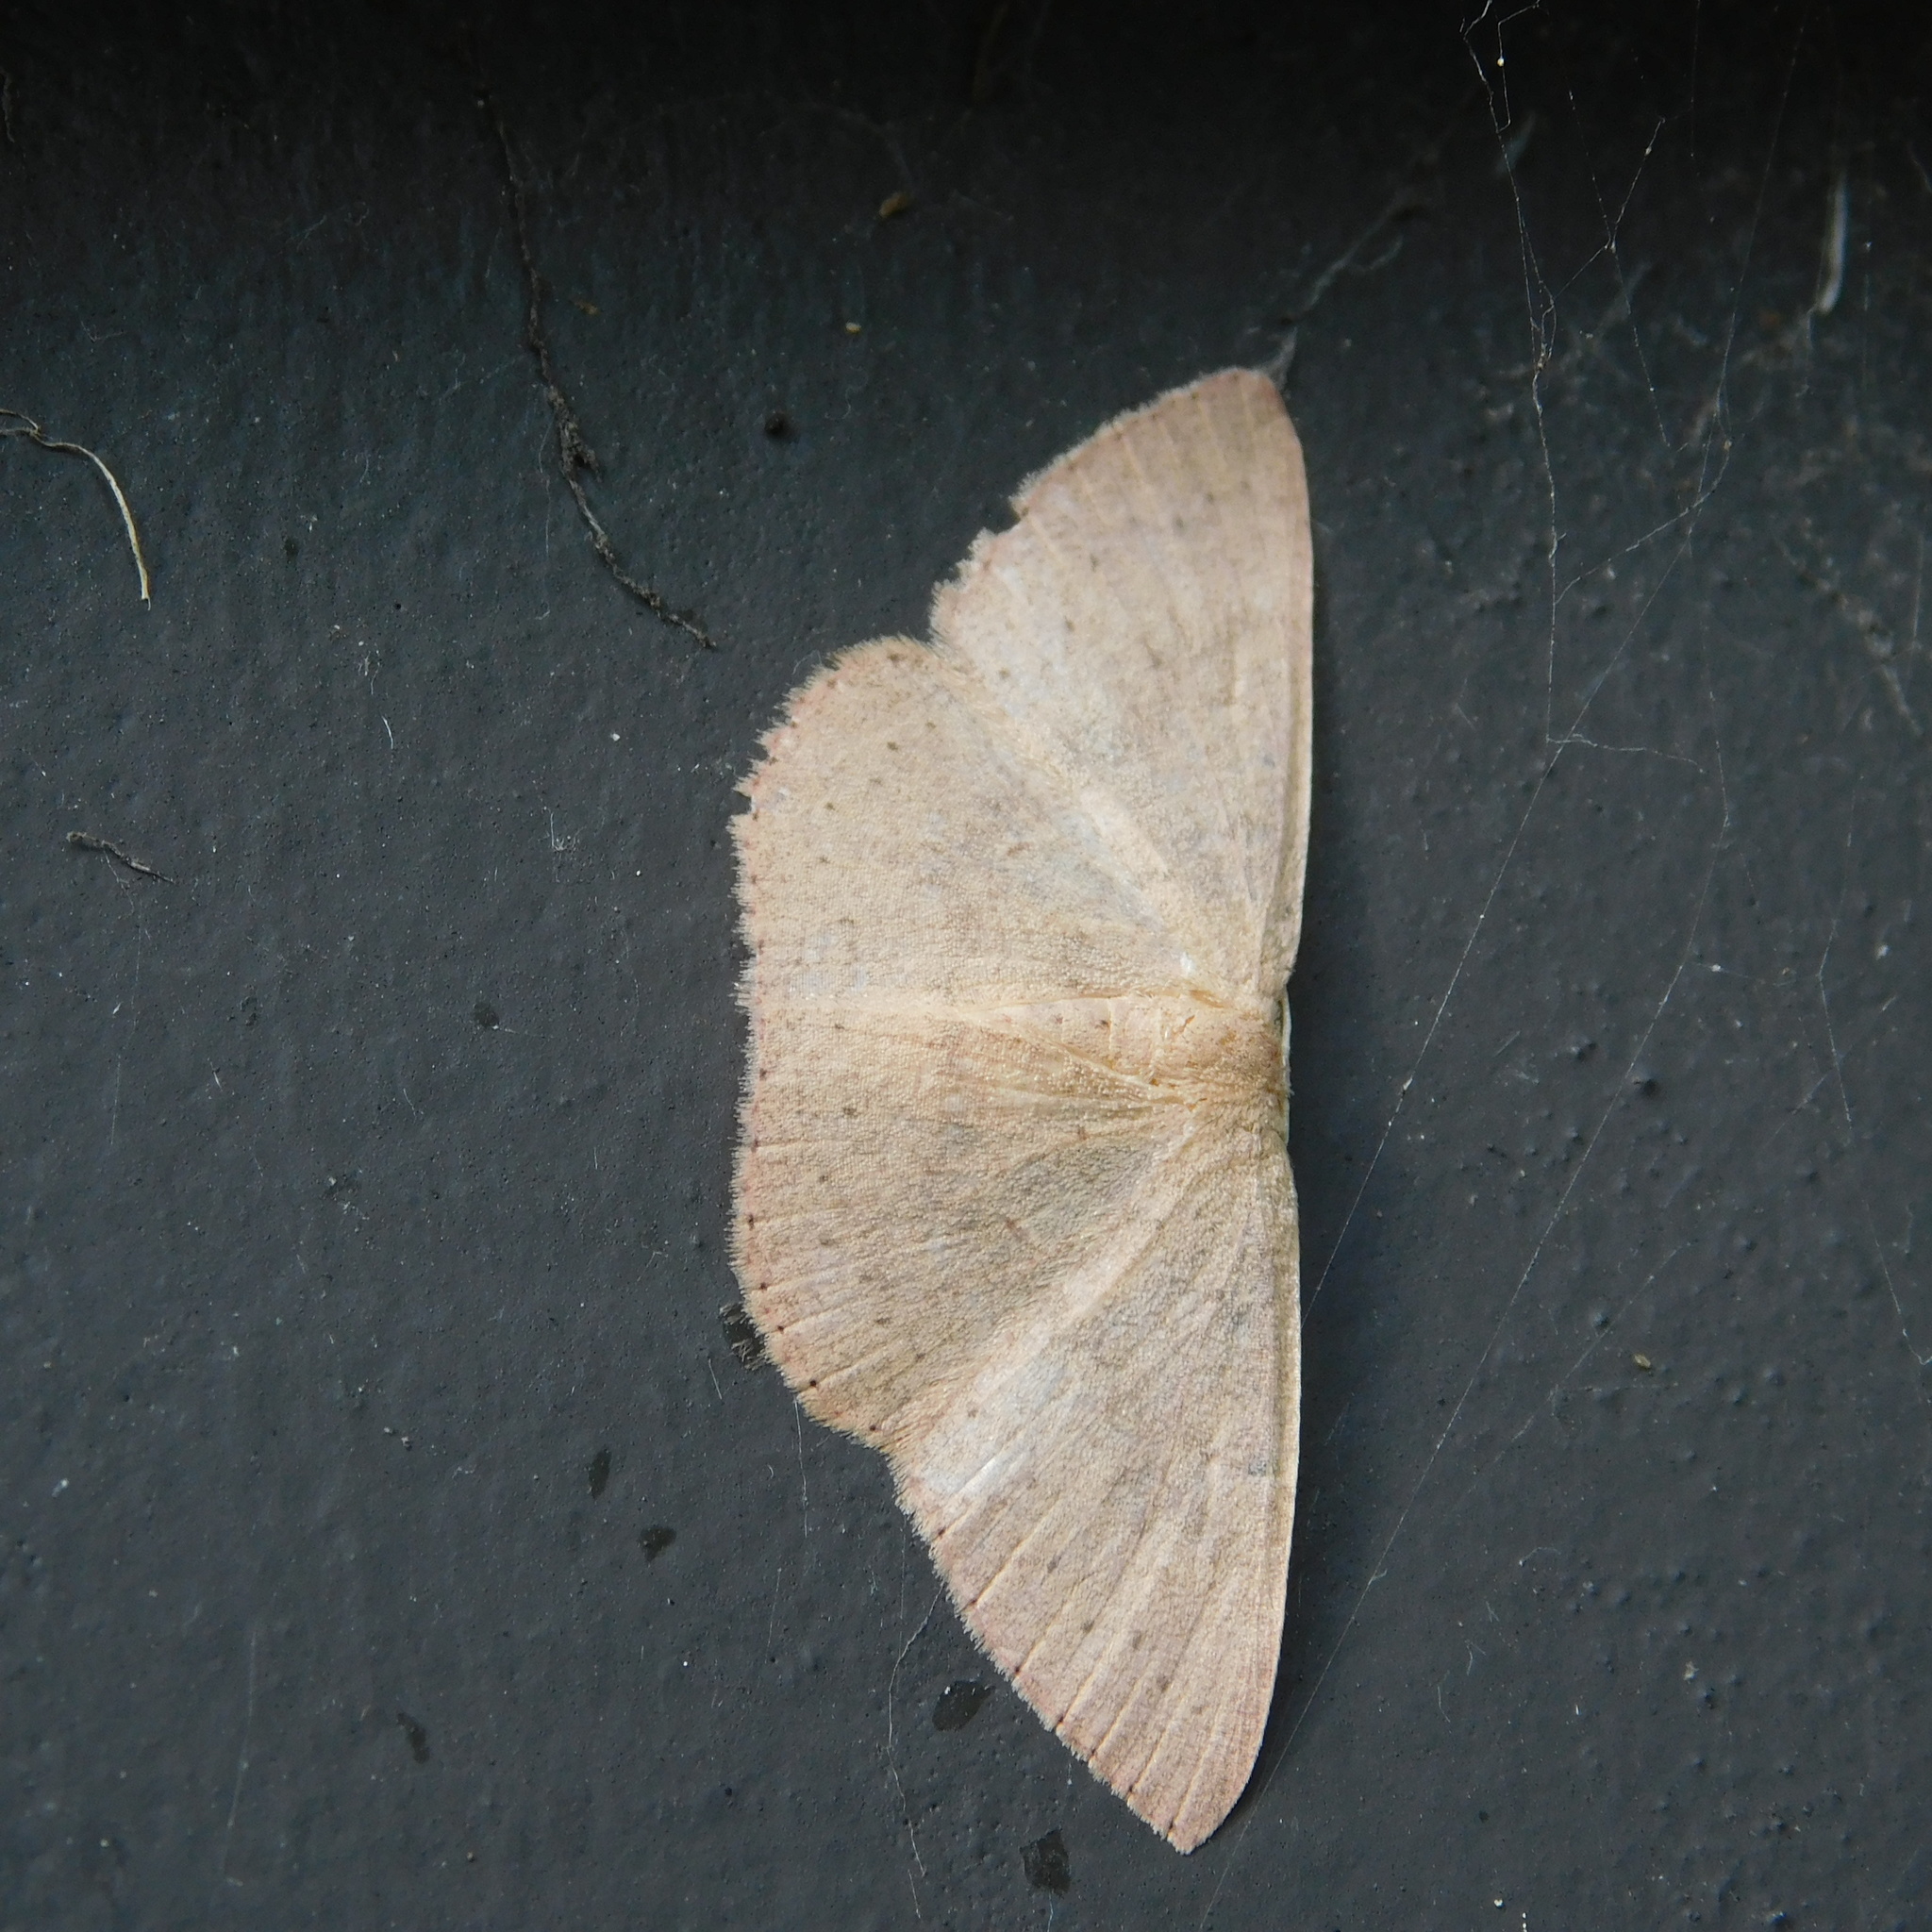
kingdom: Animalia
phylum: Arthropoda
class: Insecta
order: Lepidoptera
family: Geometridae
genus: Cyclophora
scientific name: Cyclophora obstataria
